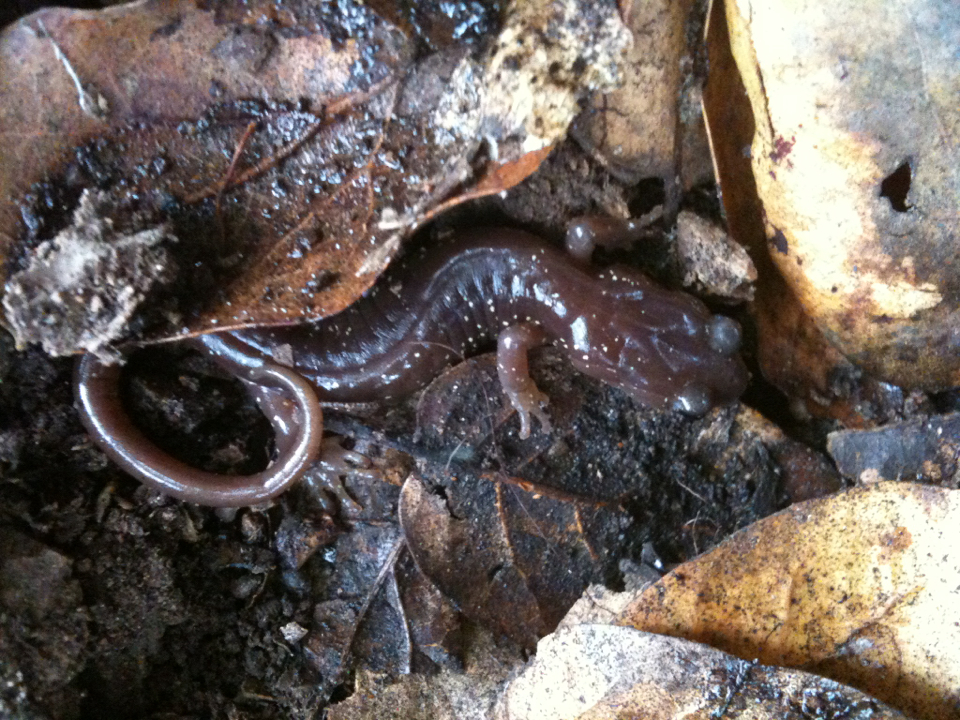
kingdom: Animalia
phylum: Chordata
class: Amphibia
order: Caudata
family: Plethodontidae
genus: Aneides
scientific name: Aneides lugubris
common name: Arboreal salamander
